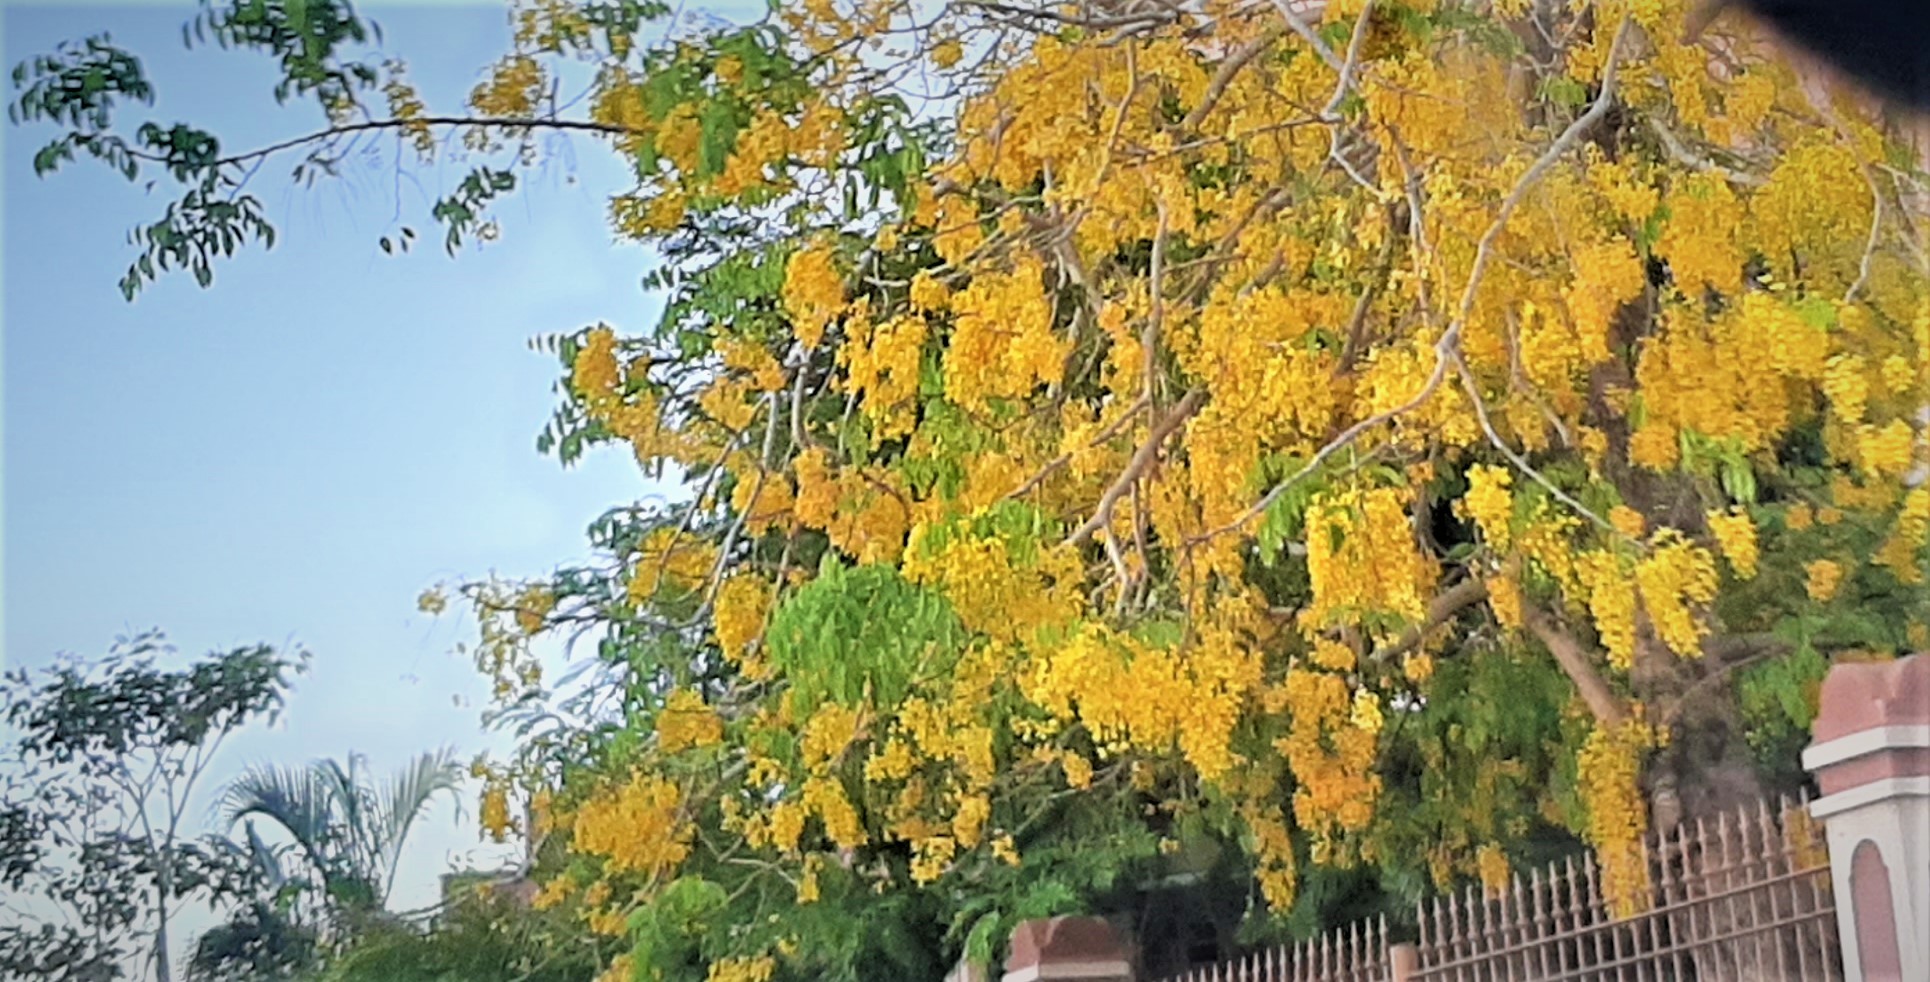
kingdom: Plantae
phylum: Tracheophyta
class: Magnoliopsida
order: Fabales
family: Fabaceae
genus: Cassia
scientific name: Cassia fistula
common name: Golden shower
